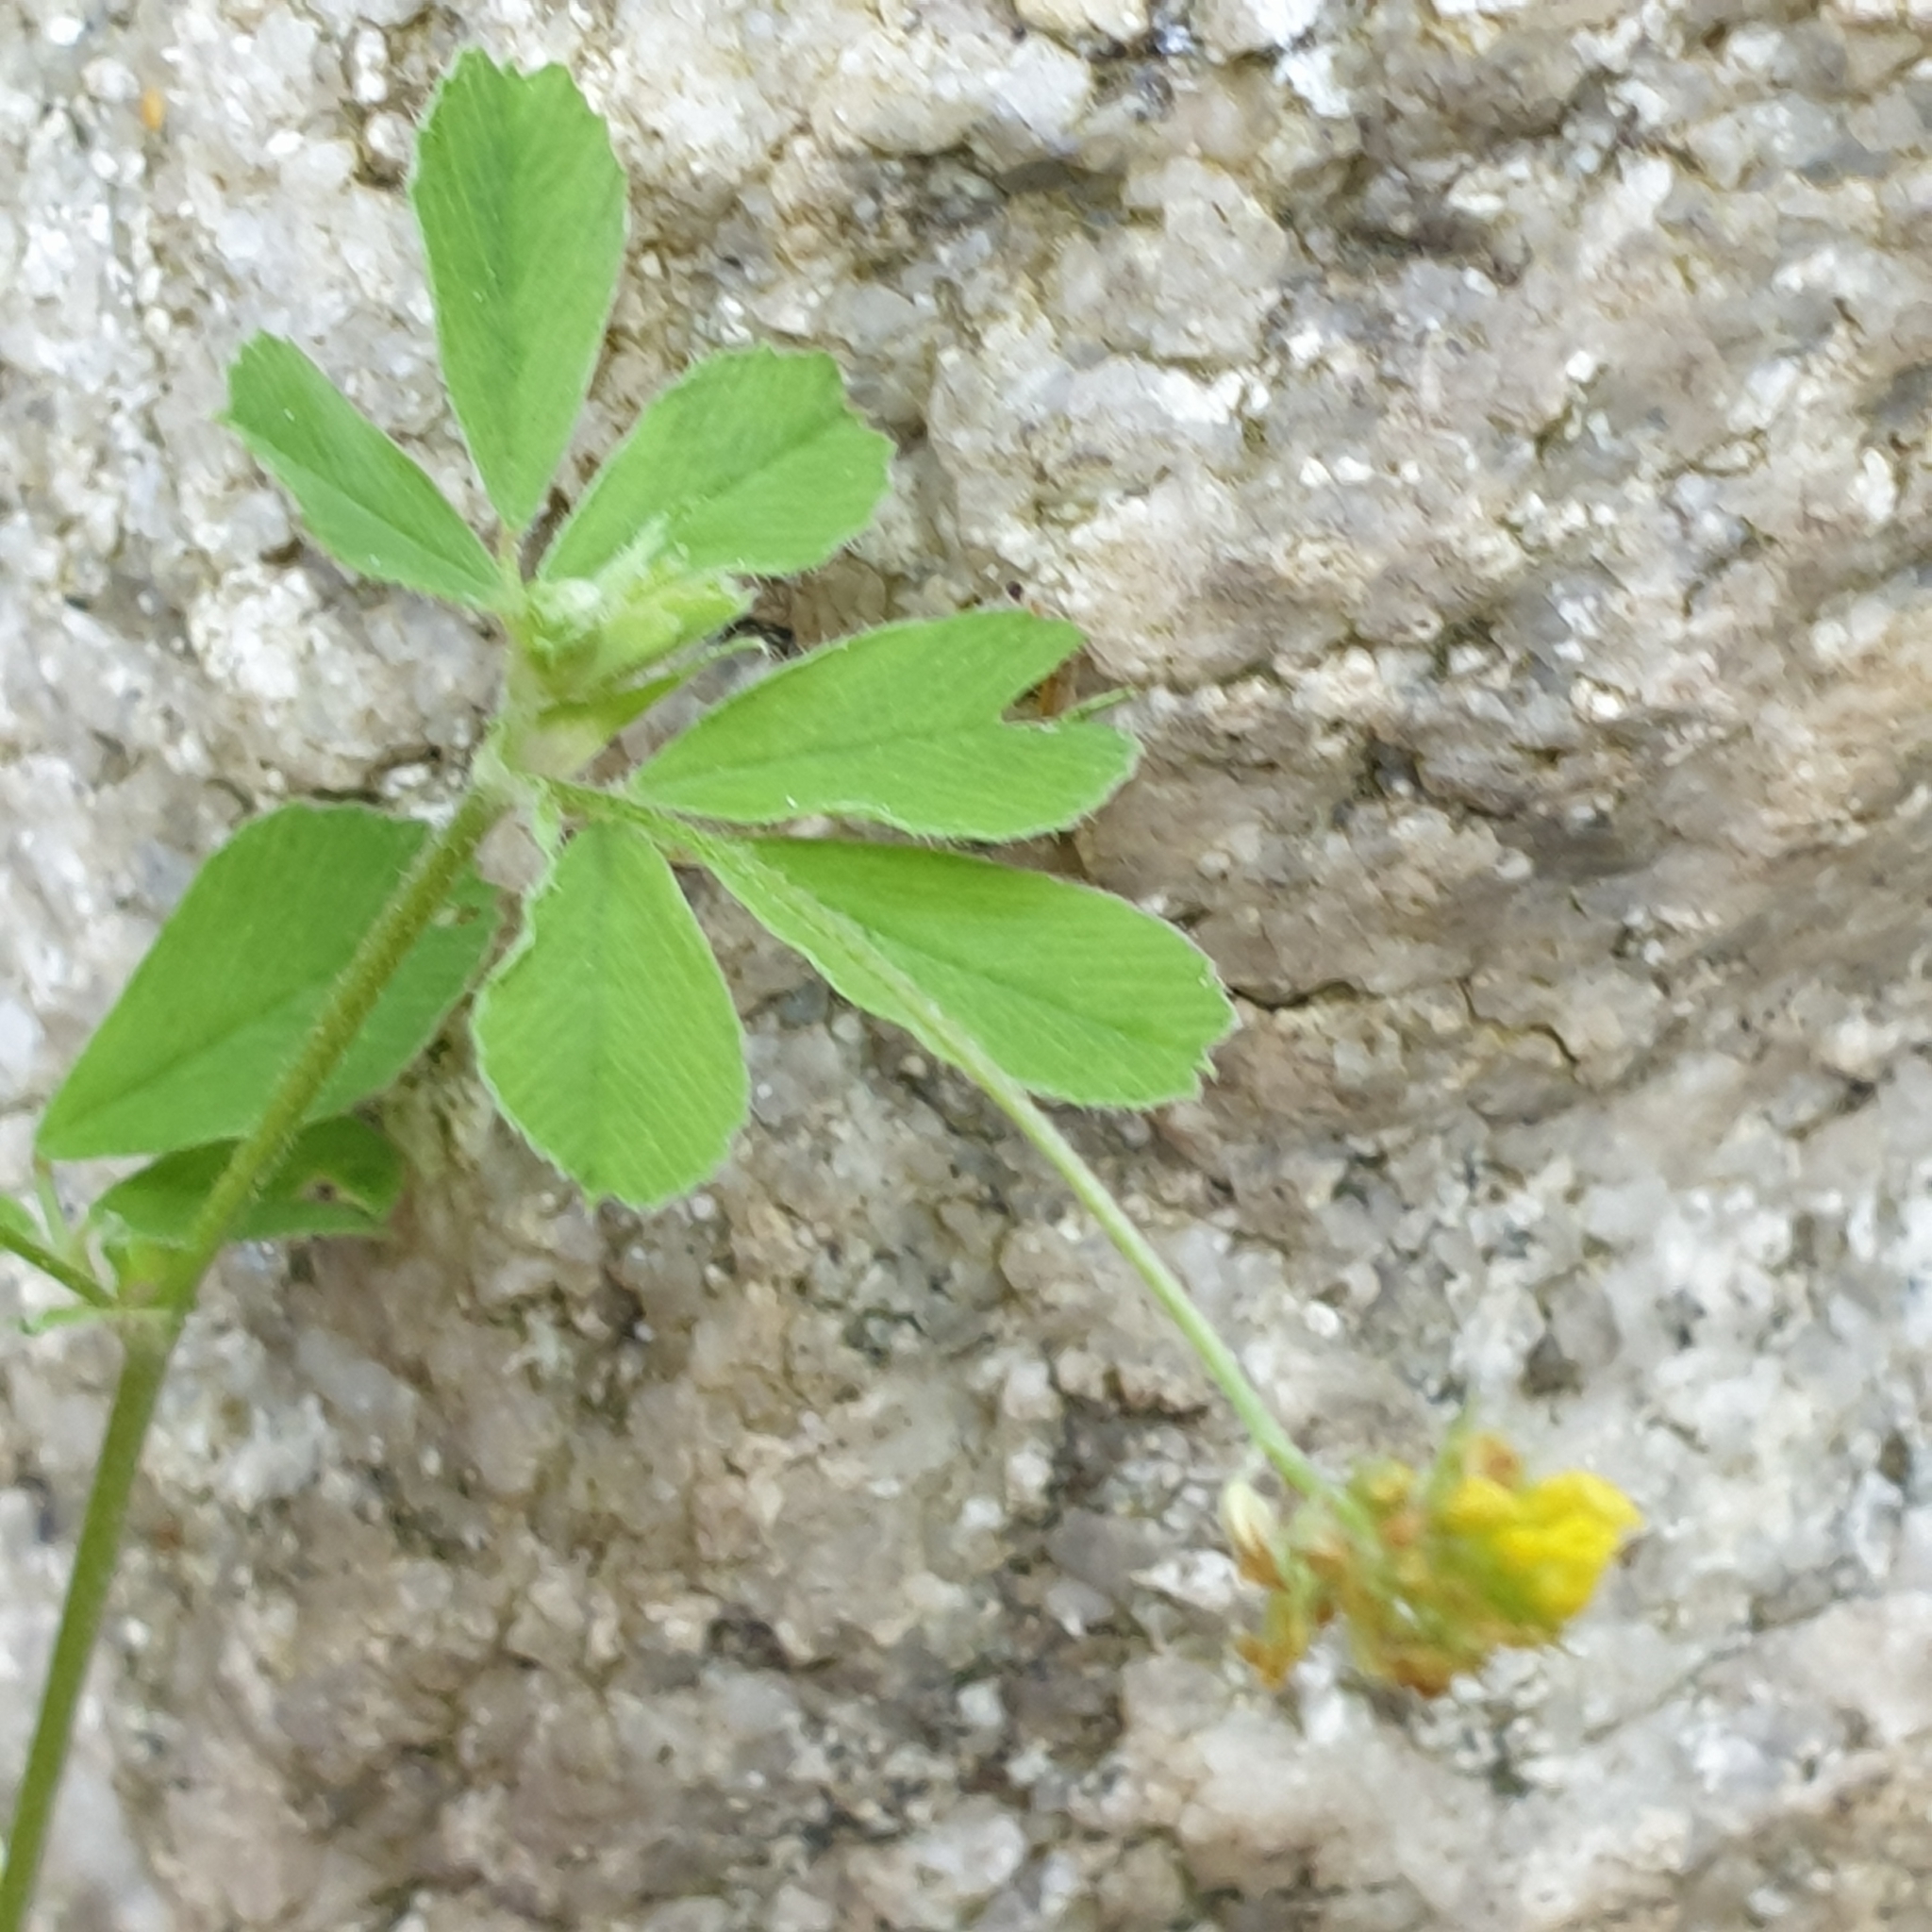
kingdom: Plantae
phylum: Tracheophyta
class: Magnoliopsida
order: Fabales
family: Fabaceae
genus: Medicago
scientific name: Medicago lupulina
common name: Black medick
